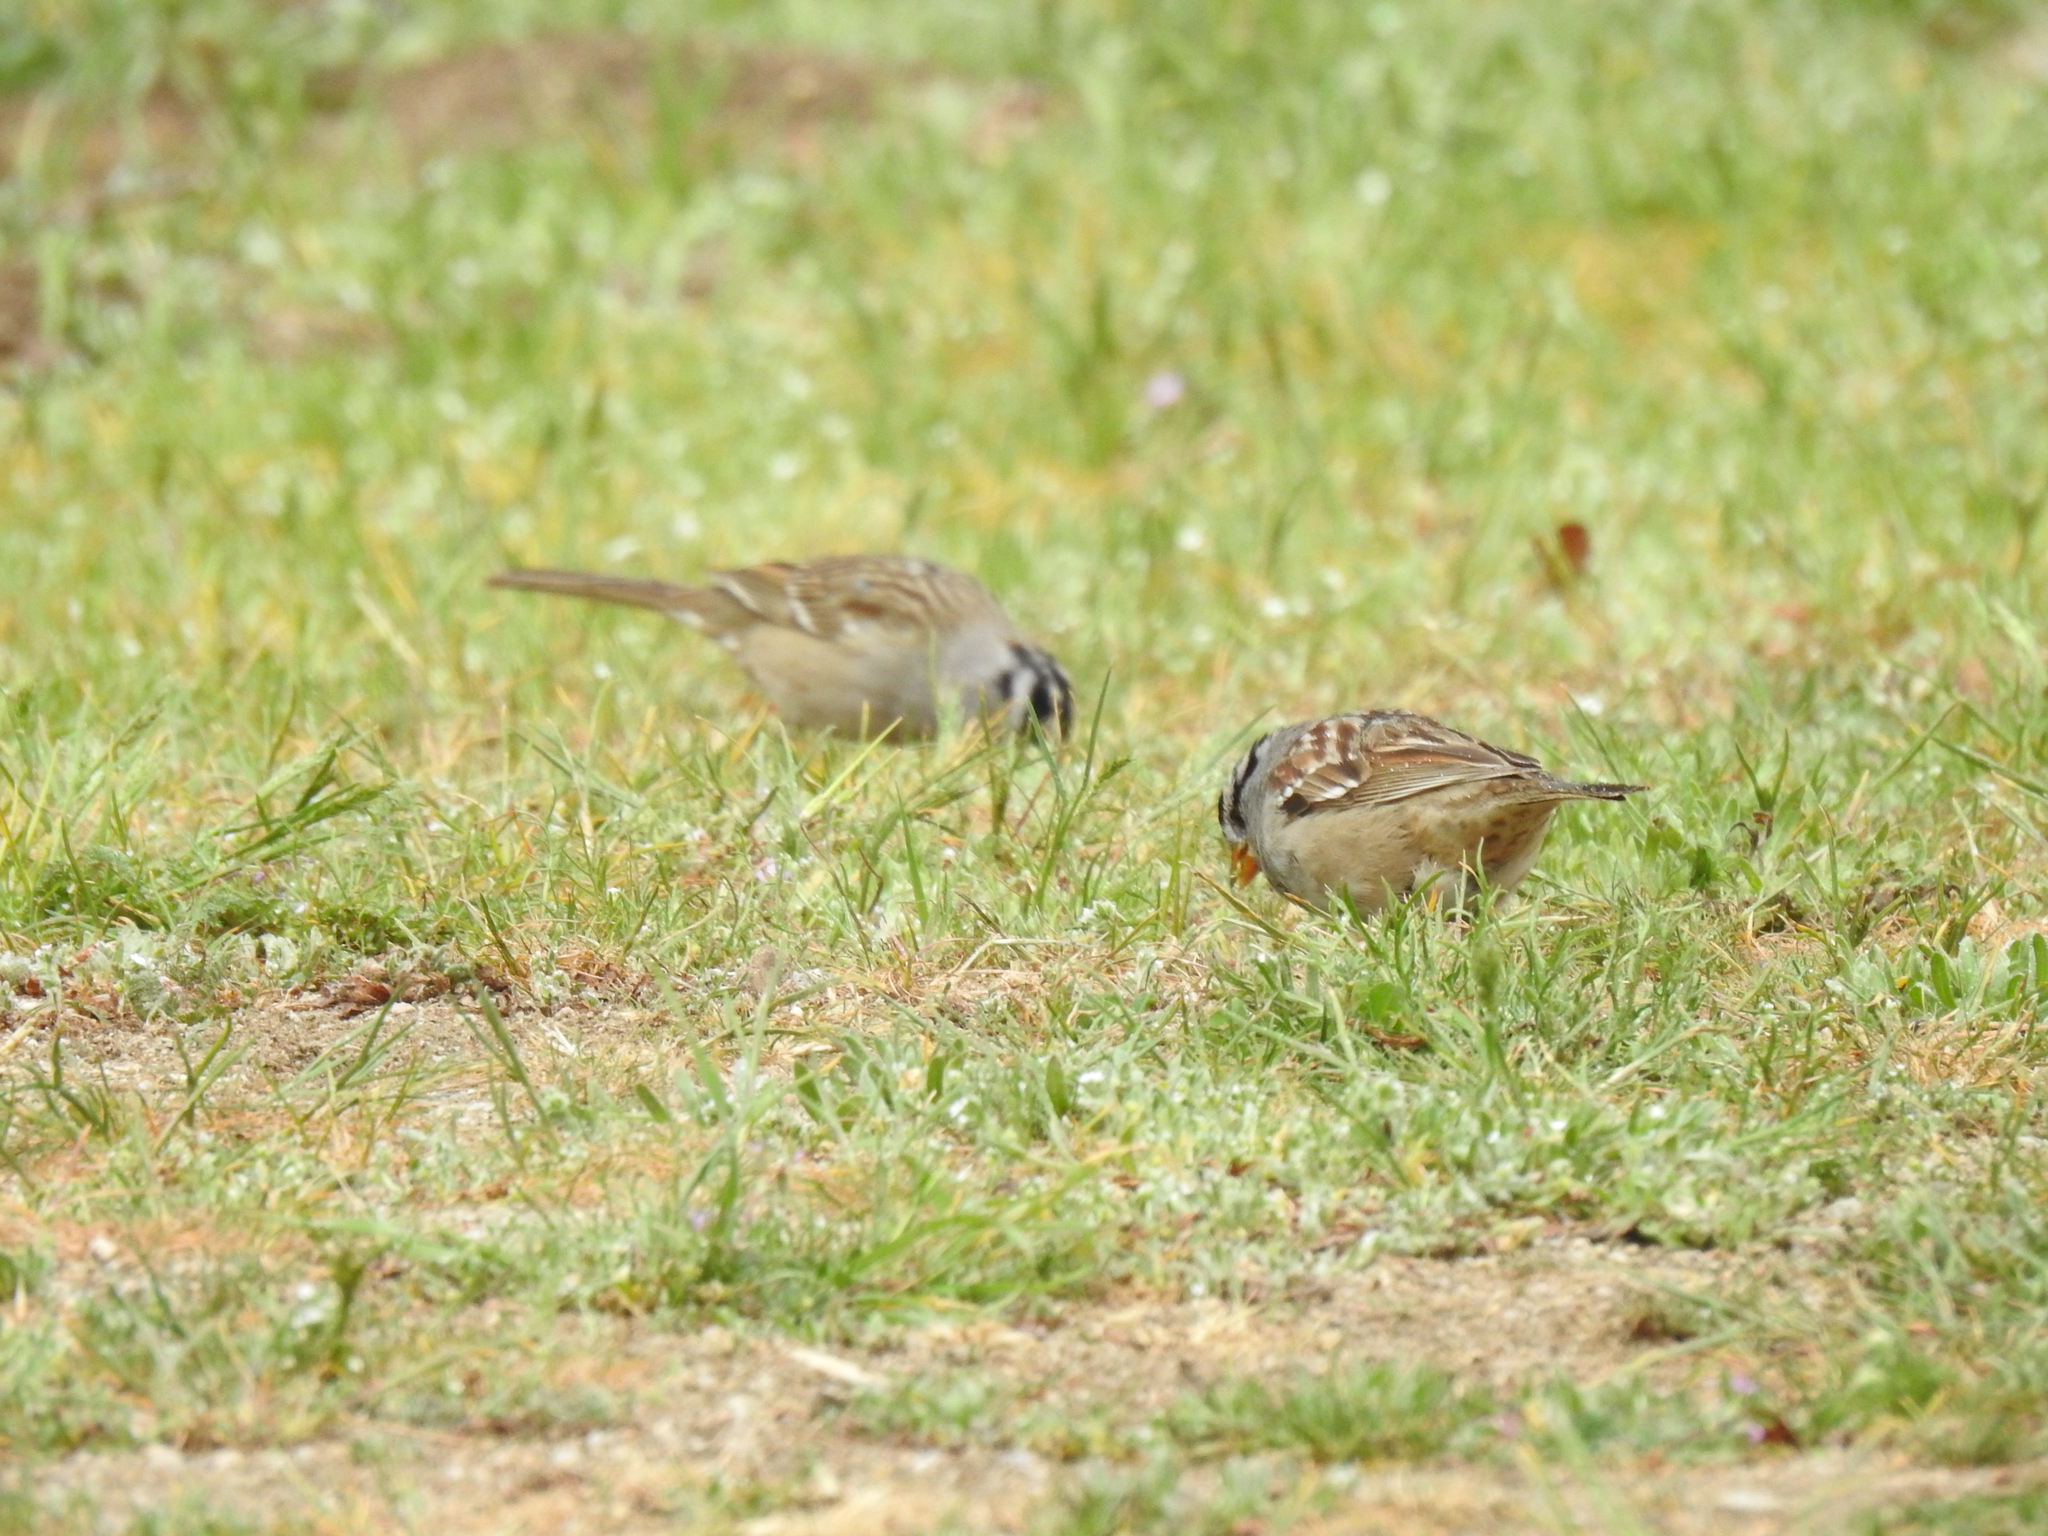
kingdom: Animalia
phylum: Chordata
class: Aves
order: Passeriformes
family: Passerellidae
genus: Zonotrichia
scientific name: Zonotrichia leucophrys
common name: White-crowned sparrow
